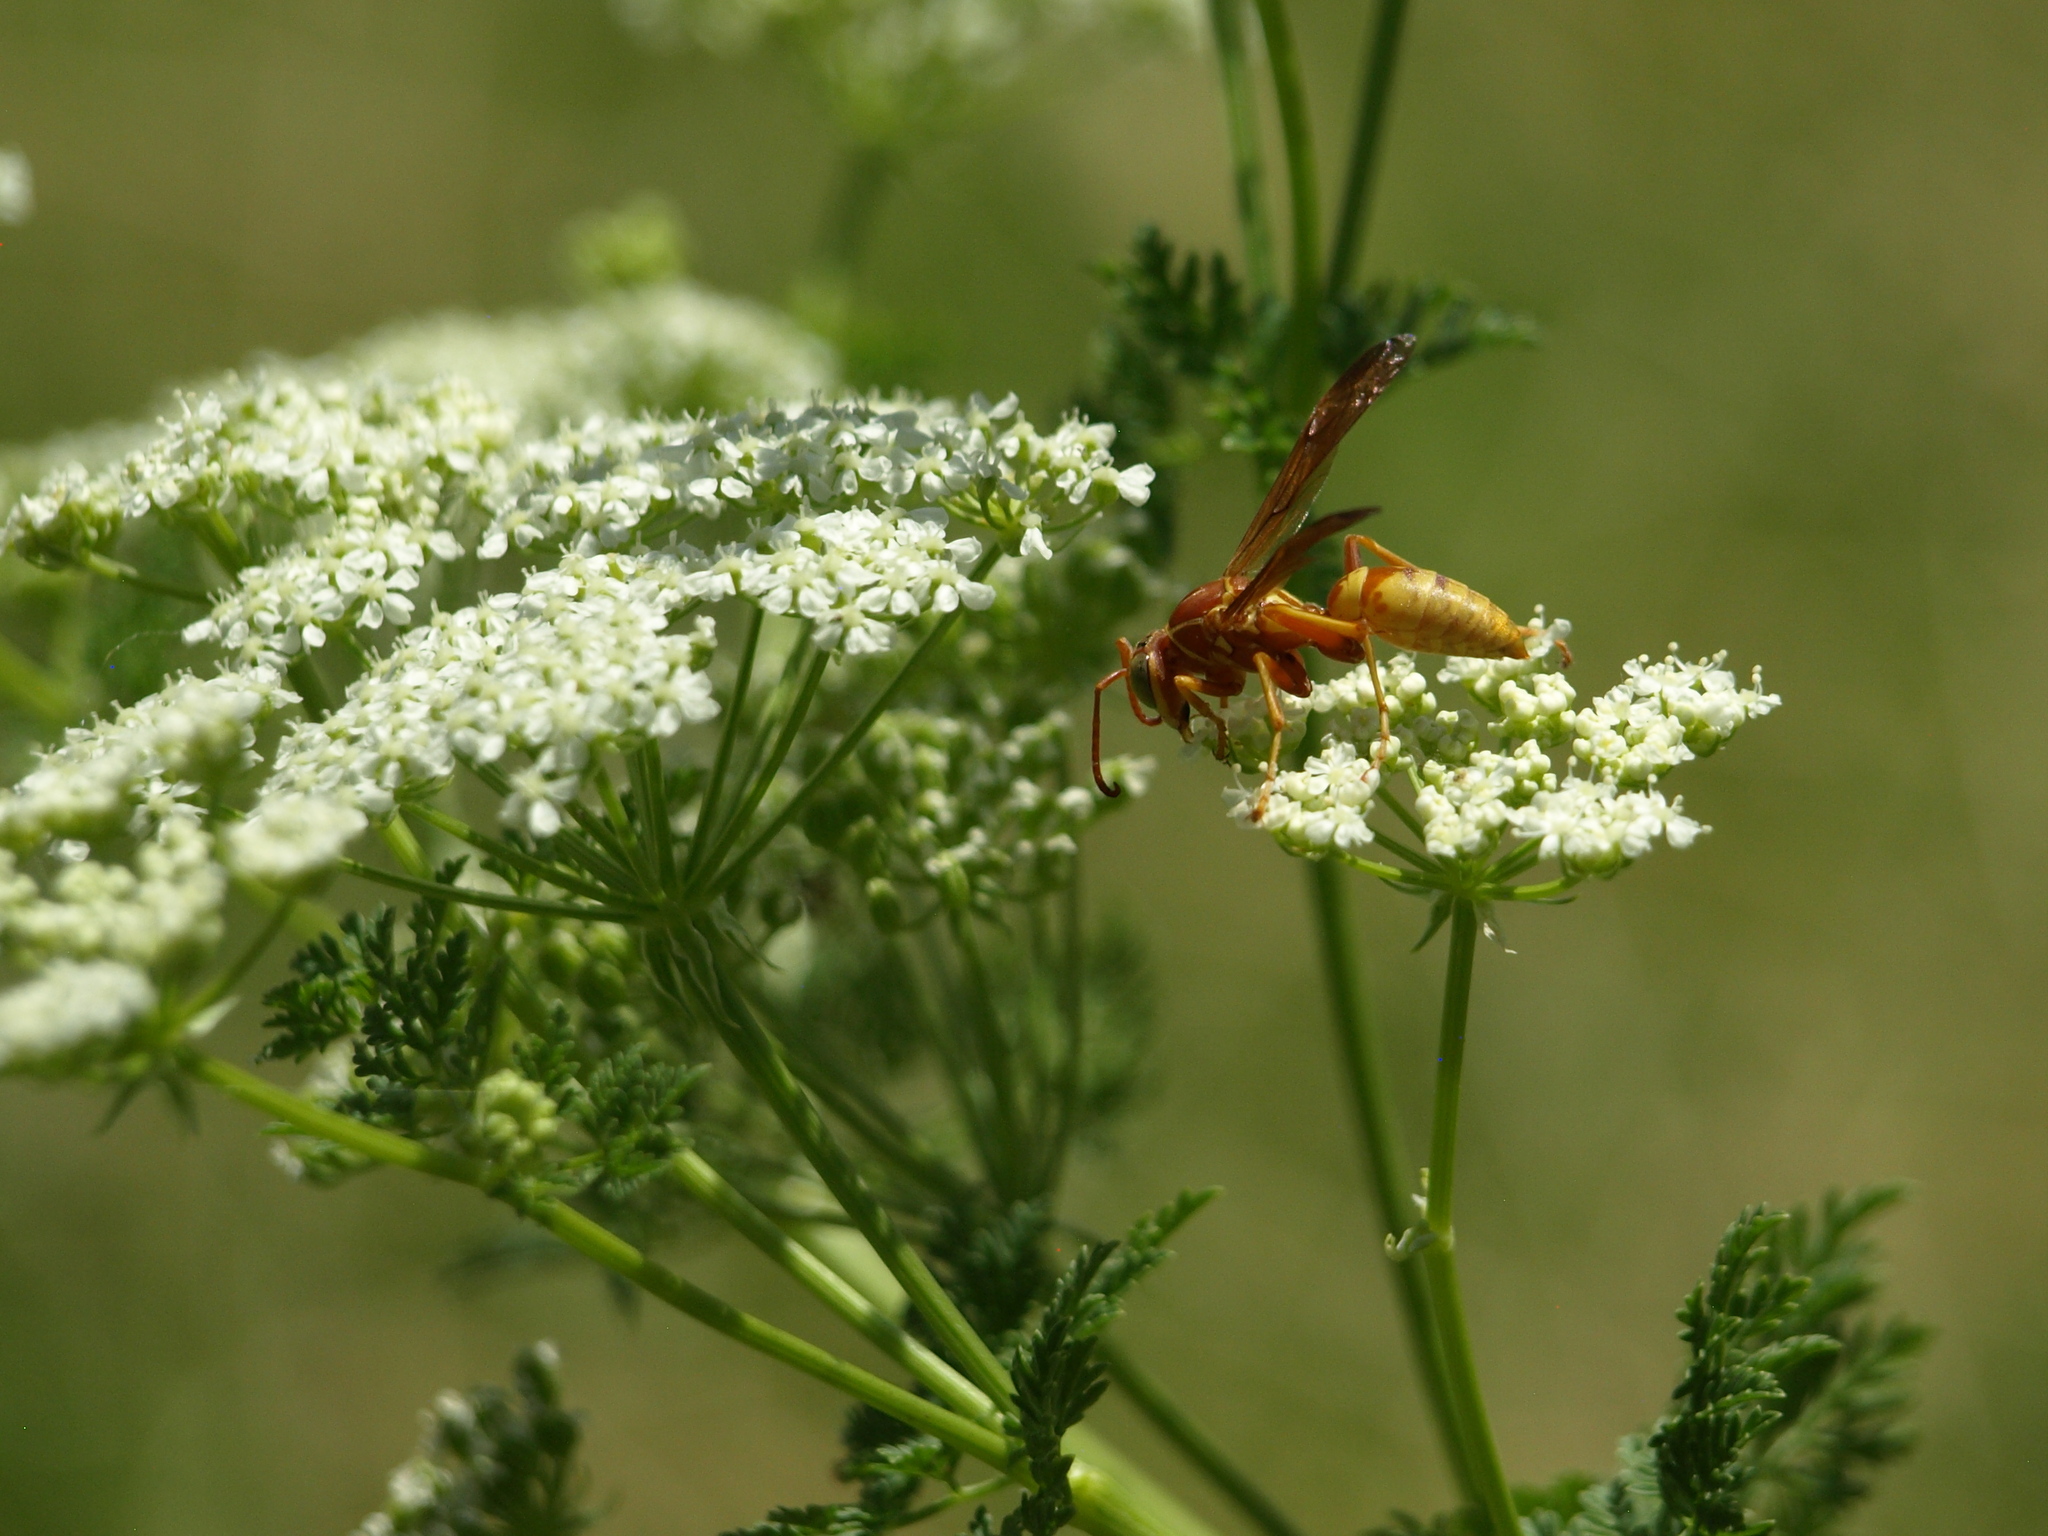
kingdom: Animalia
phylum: Arthropoda
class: Insecta
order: Hymenoptera
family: Eumenidae
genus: Polistes
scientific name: Polistes aurifer
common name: Paper wasp
